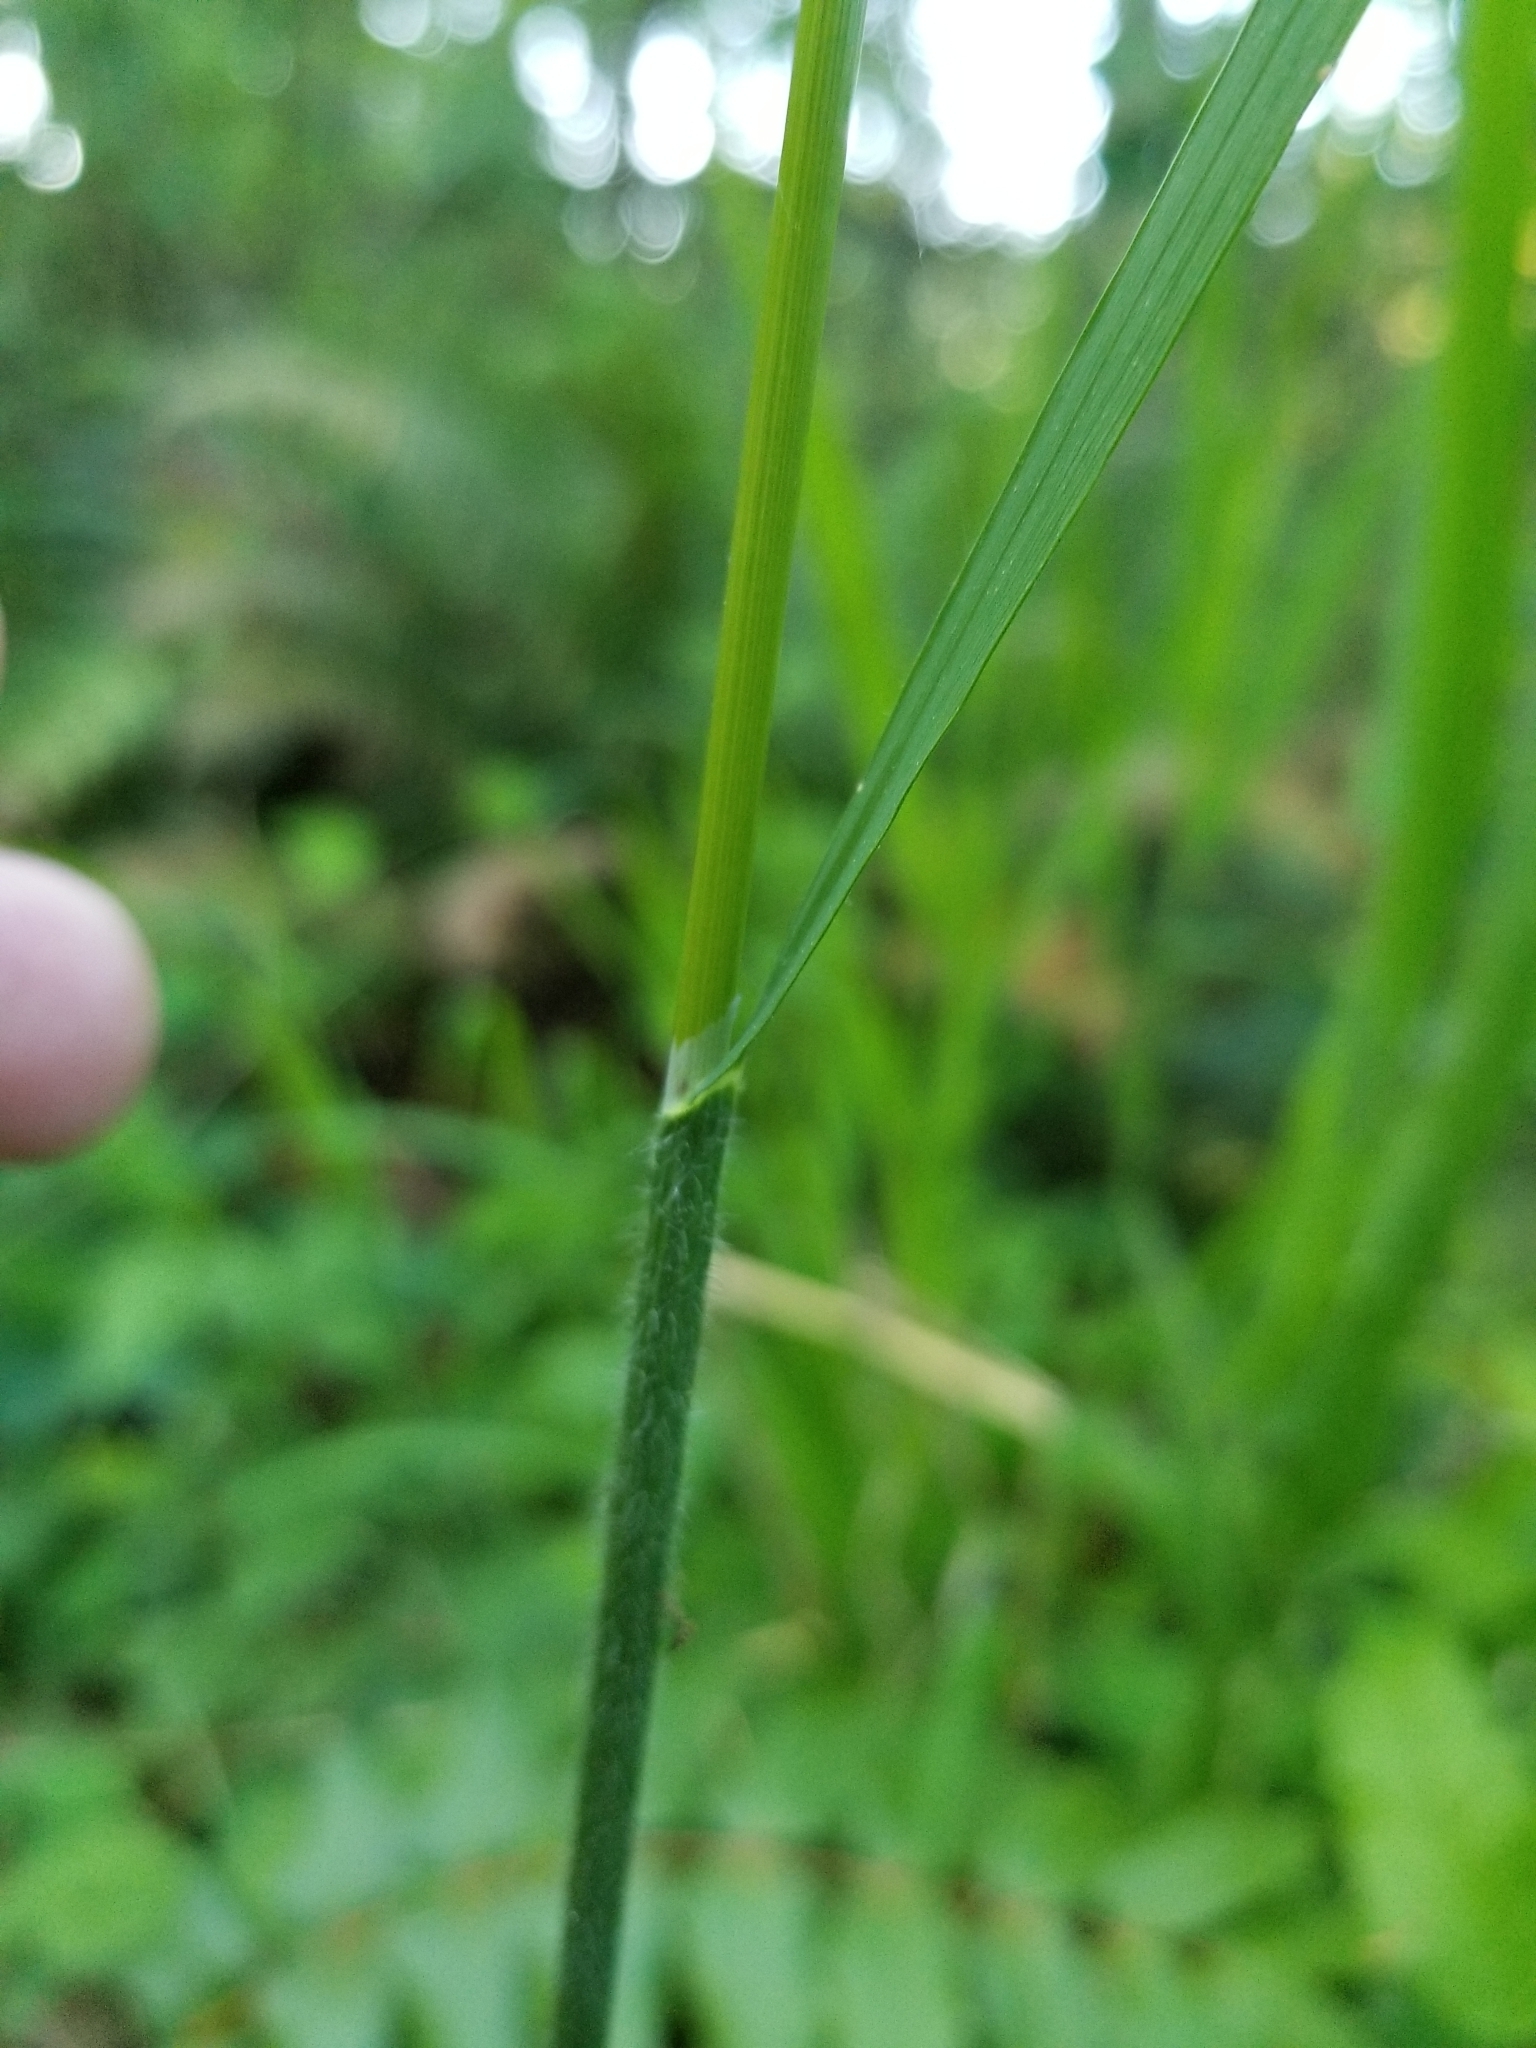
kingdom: Plantae
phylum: Tracheophyta
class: Liliopsida
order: Poales
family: Poaceae
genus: Bromus
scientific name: Bromus vulgaris
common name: Columbia brome
